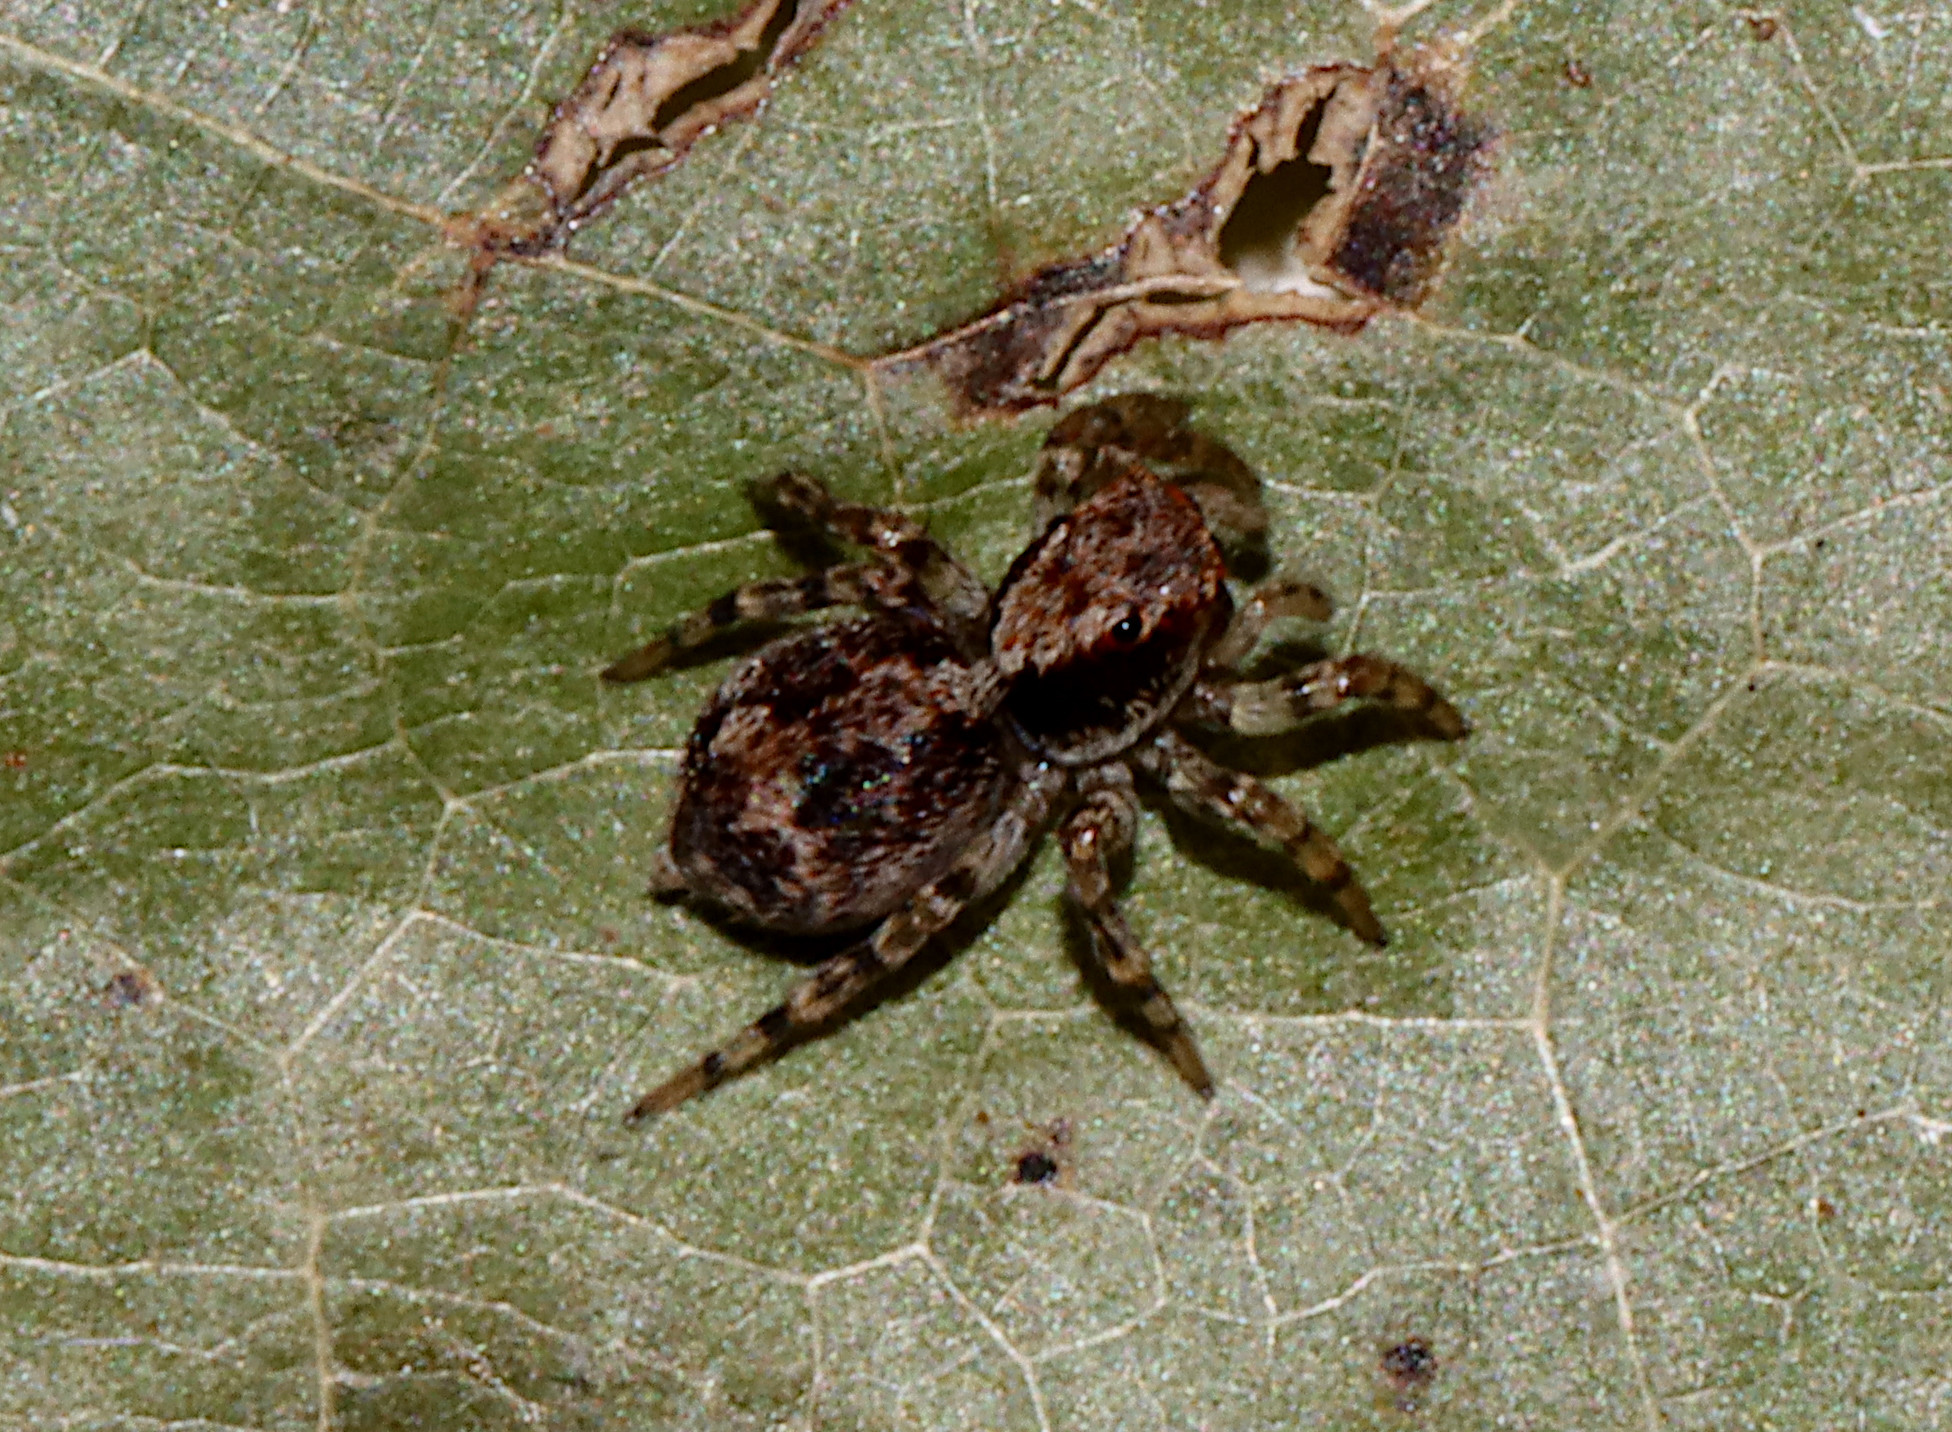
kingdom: Animalia
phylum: Arthropoda
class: Arachnida
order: Araneae
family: Salticidae
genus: Naphrys
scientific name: Naphrys pulex
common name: Flea jumping spider
